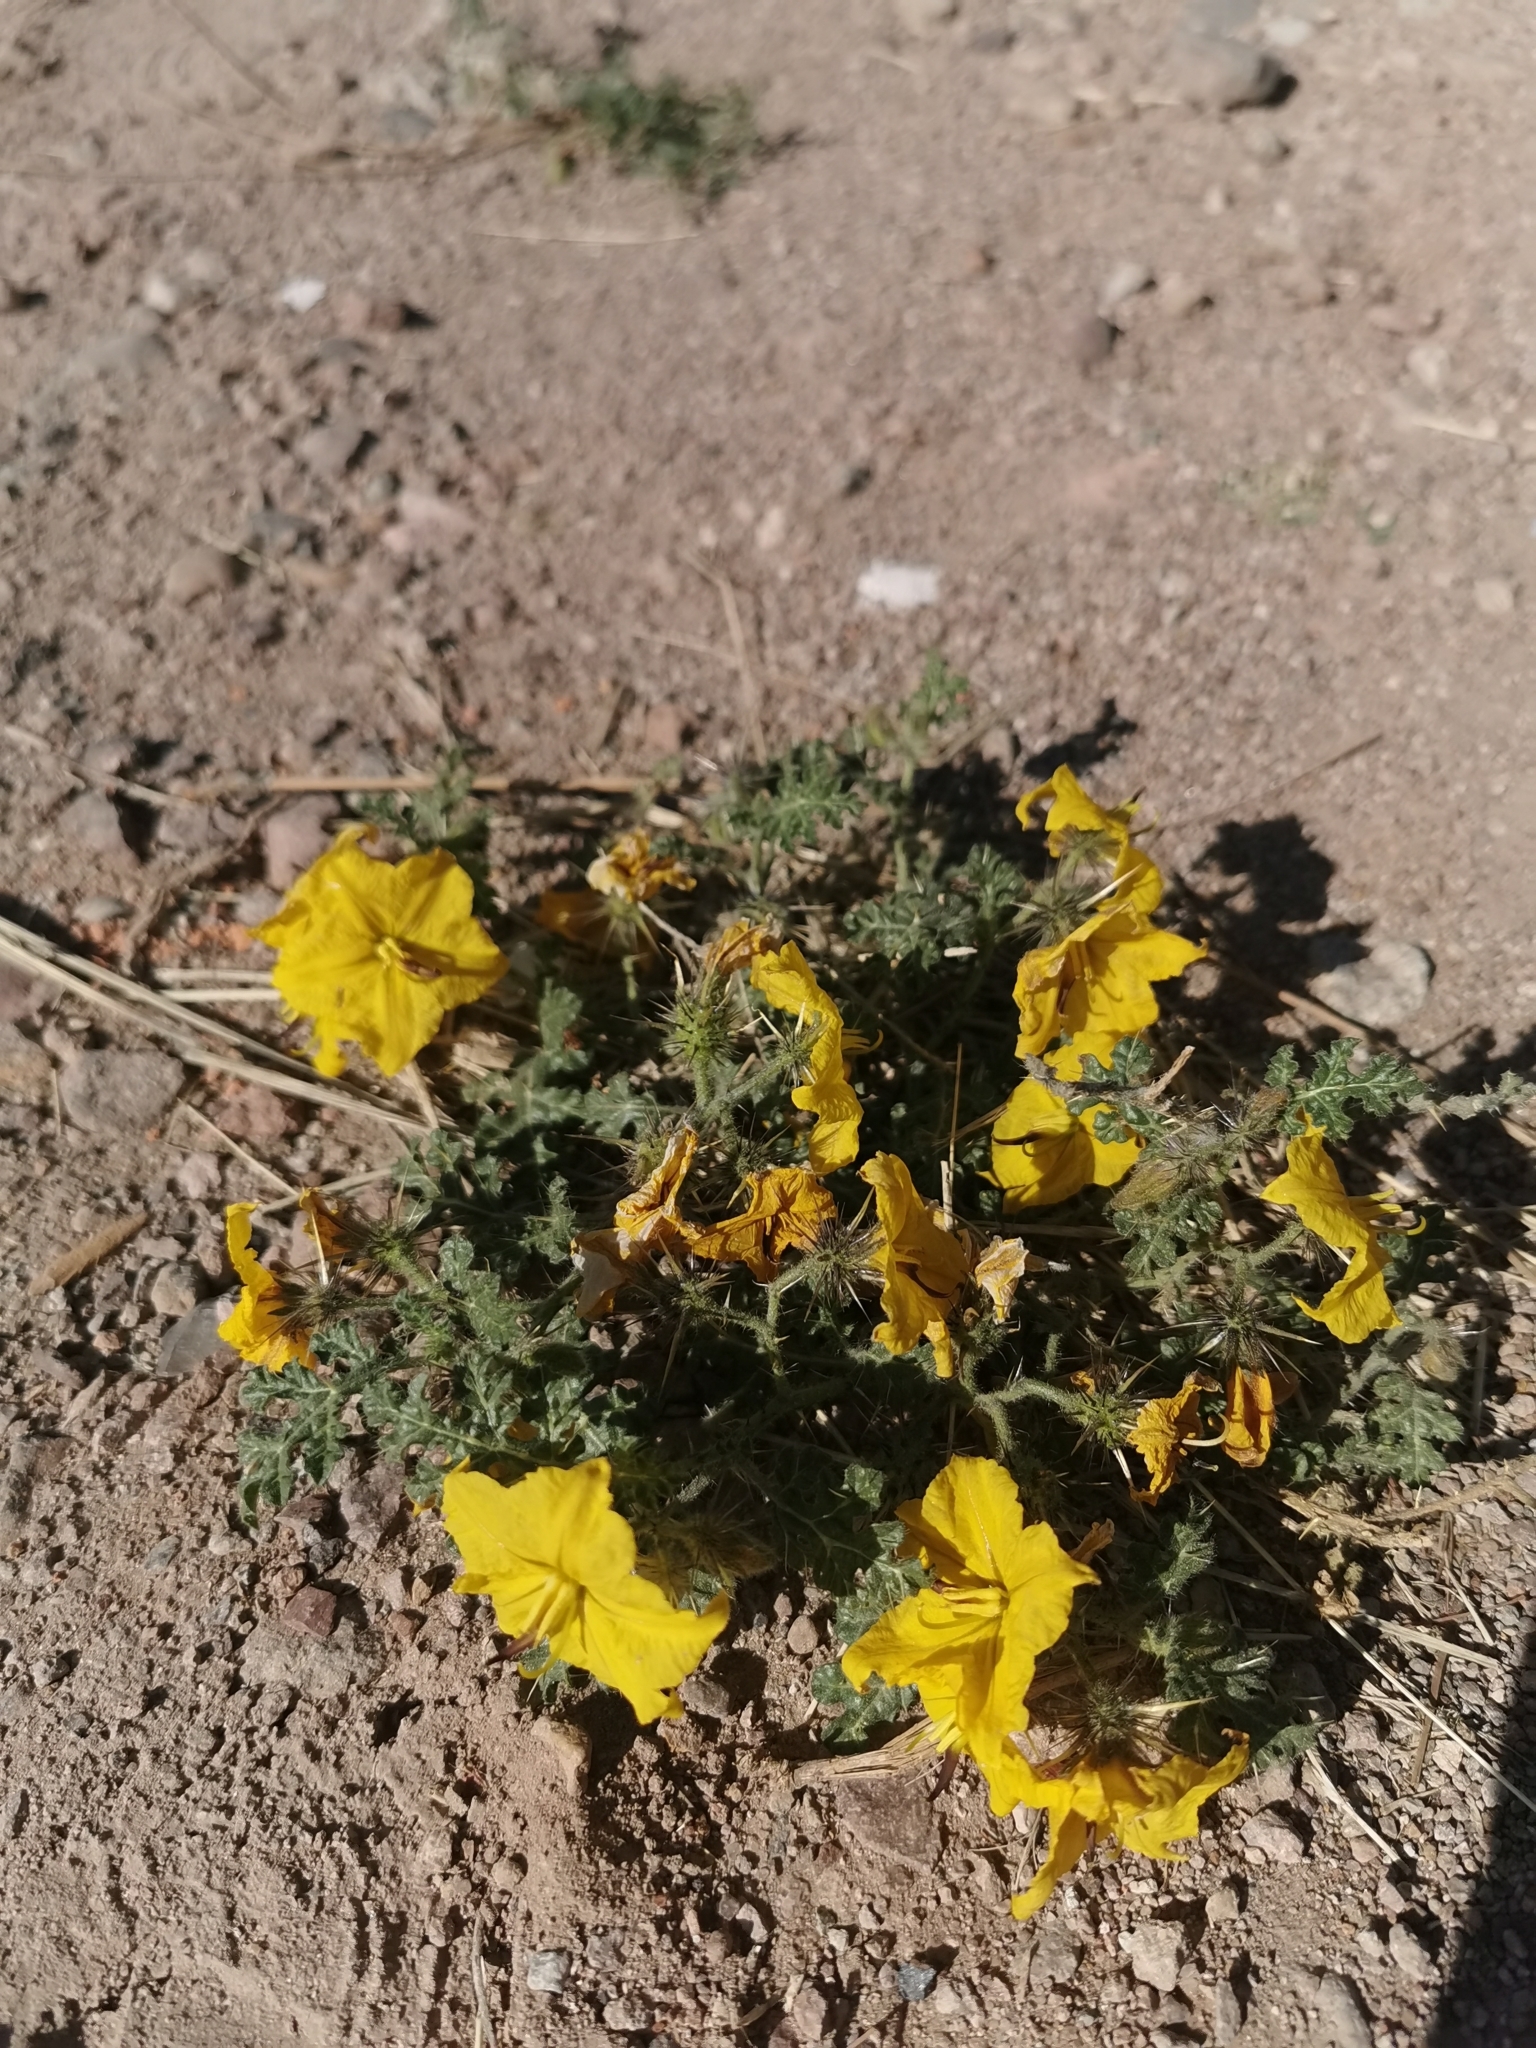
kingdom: Plantae
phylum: Tracheophyta
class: Magnoliopsida
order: Solanales
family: Solanaceae
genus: Solanum
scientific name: Solanum angustifolium
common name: Buffalobur nightshade
